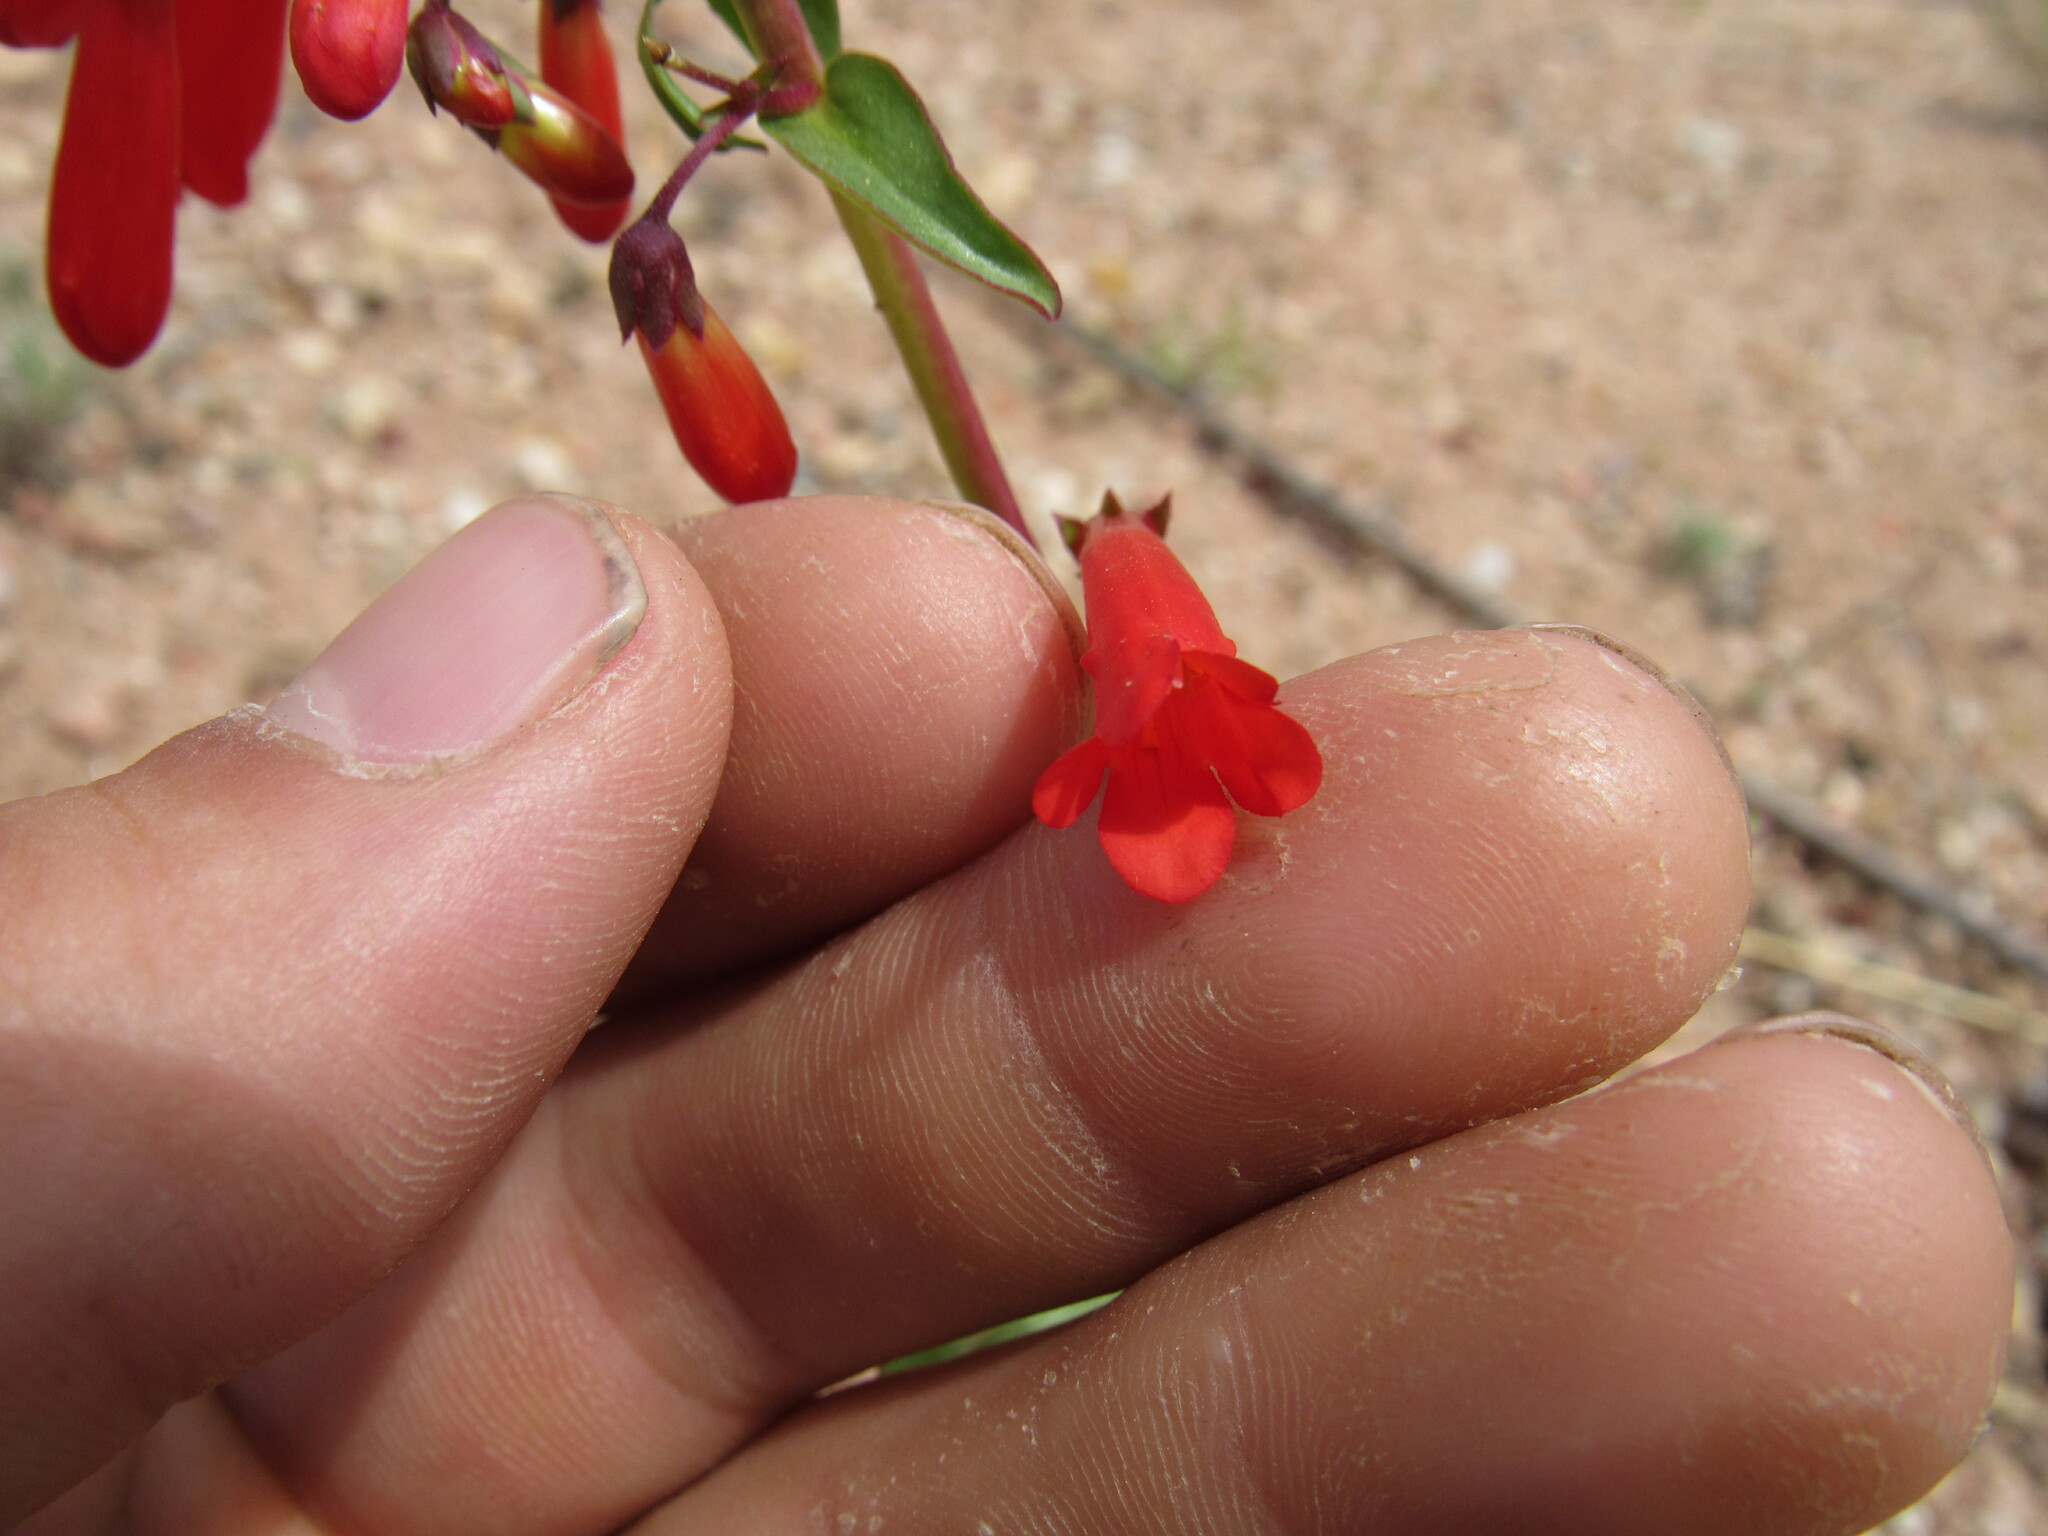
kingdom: Plantae
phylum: Tracheophyta
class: Magnoliopsida
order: Lamiales
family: Plantaginaceae
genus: Penstemon
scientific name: Penstemon eatonii
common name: Eaton's penstemon
